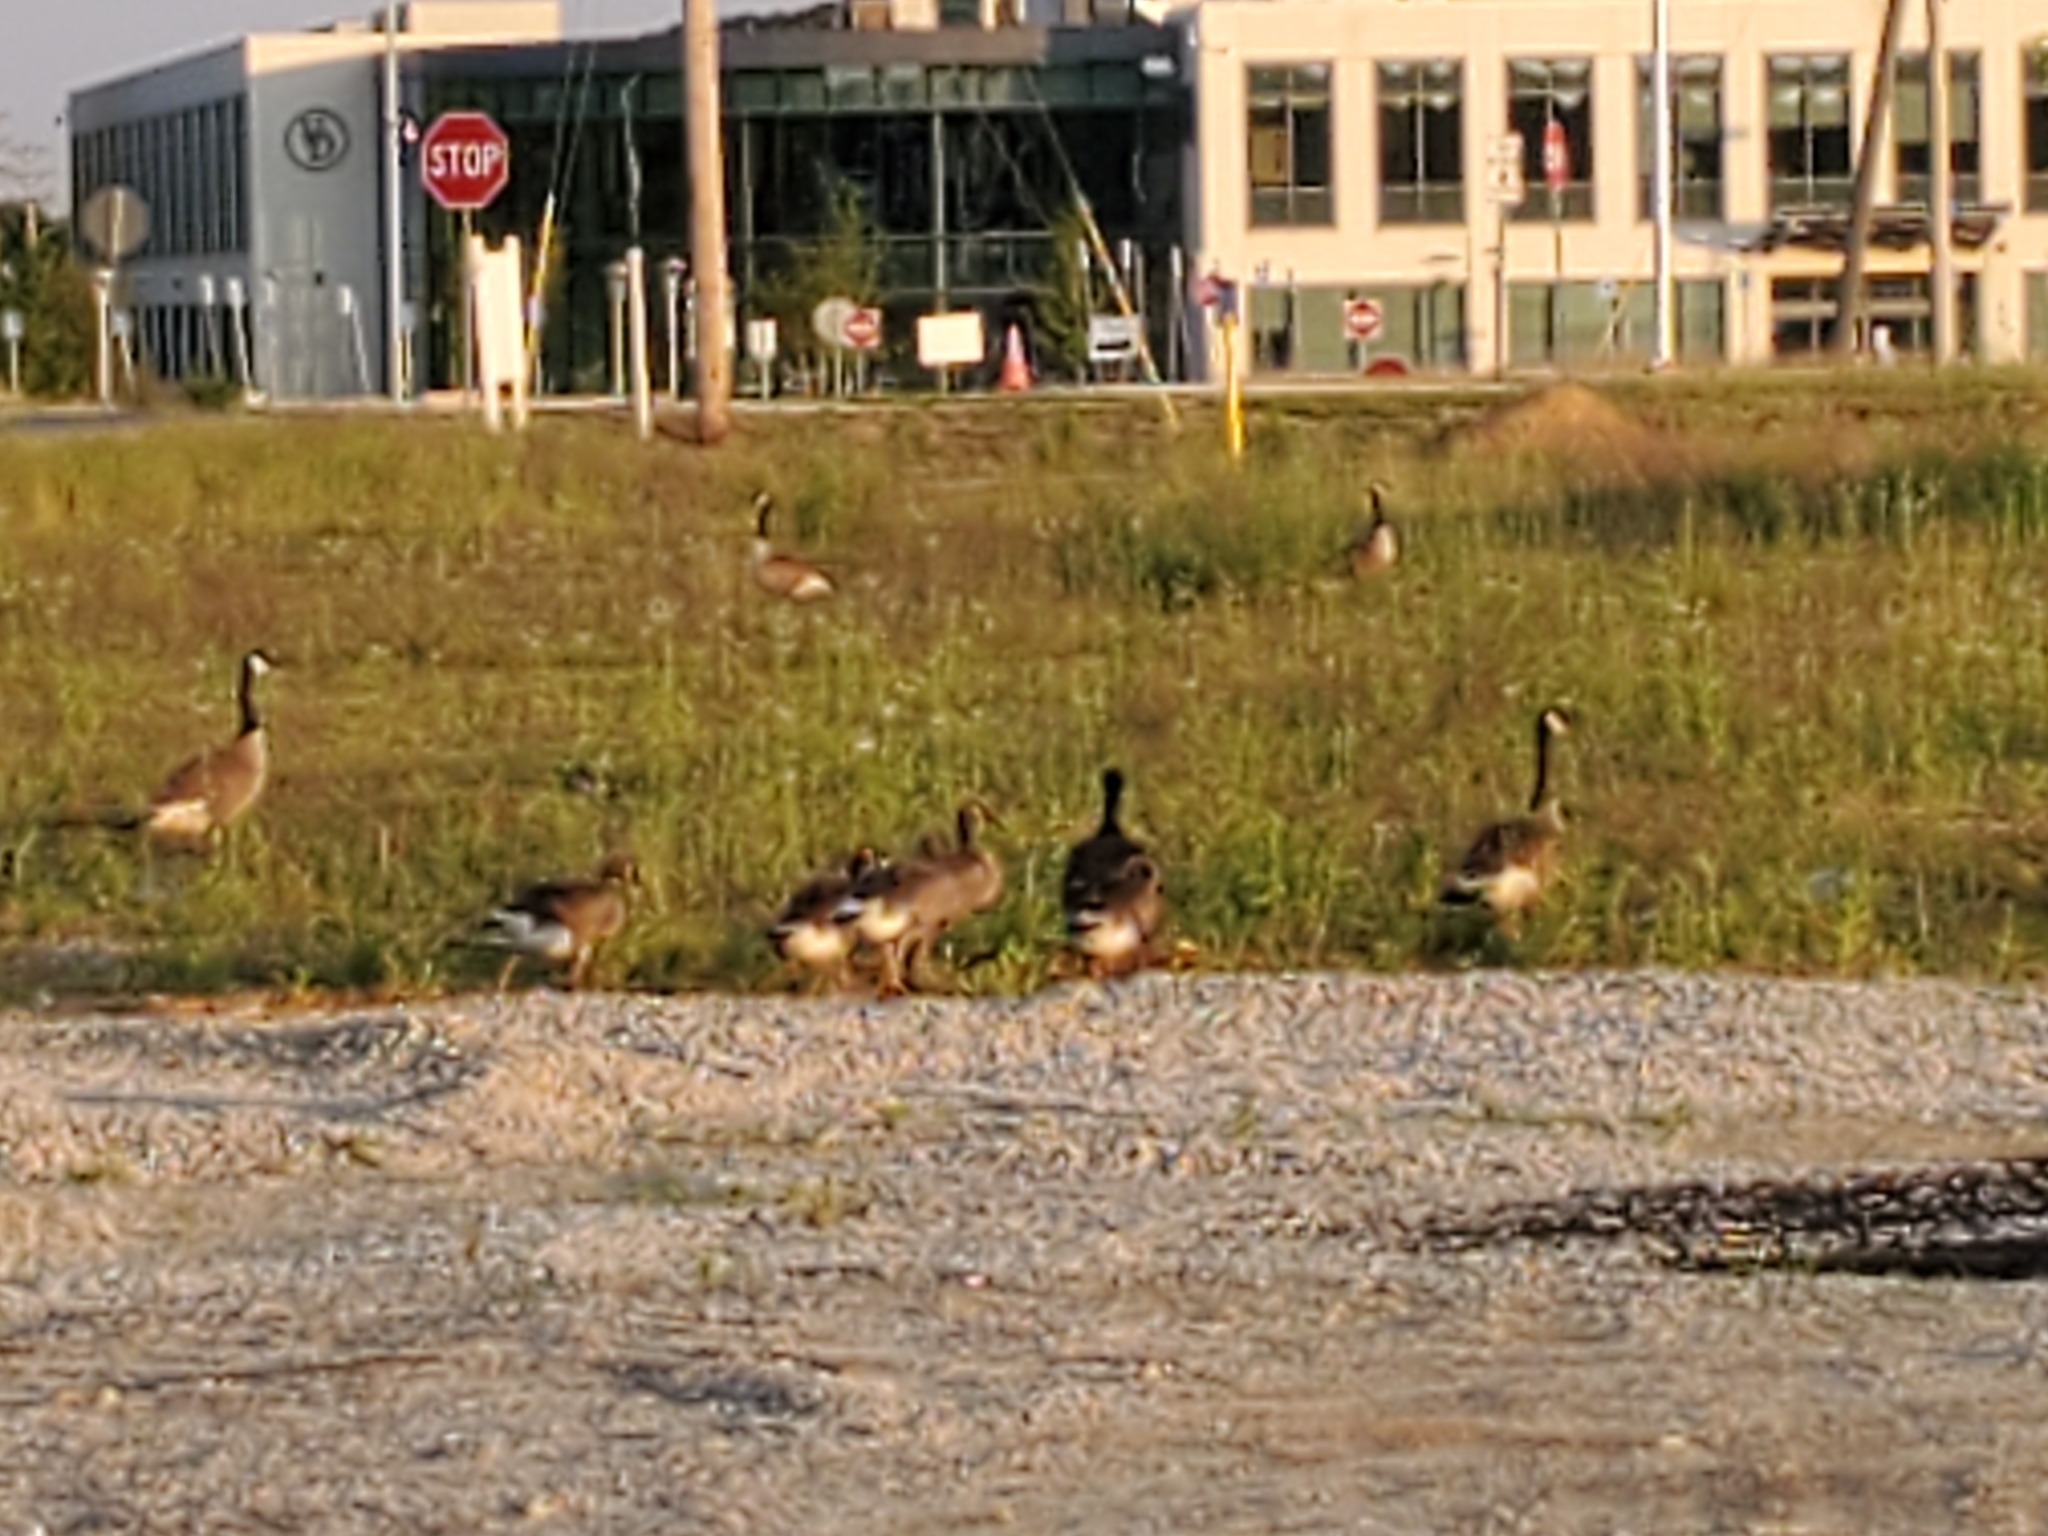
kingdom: Animalia
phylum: Chordata
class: Aves
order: Anseriformes
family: Anatidae
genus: Branta
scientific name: Branta canadensis
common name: Canada goose
